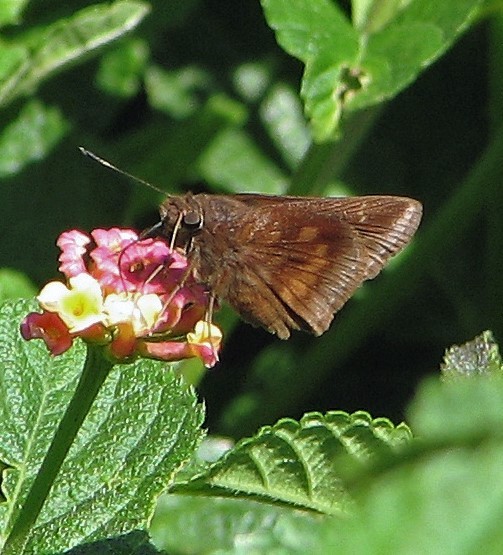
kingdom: Animalia
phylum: Arthropoda
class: Insecta
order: Lepidoptera
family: Hesperiidae
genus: Quinta
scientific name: Quinta cannae
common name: Canna skipper
